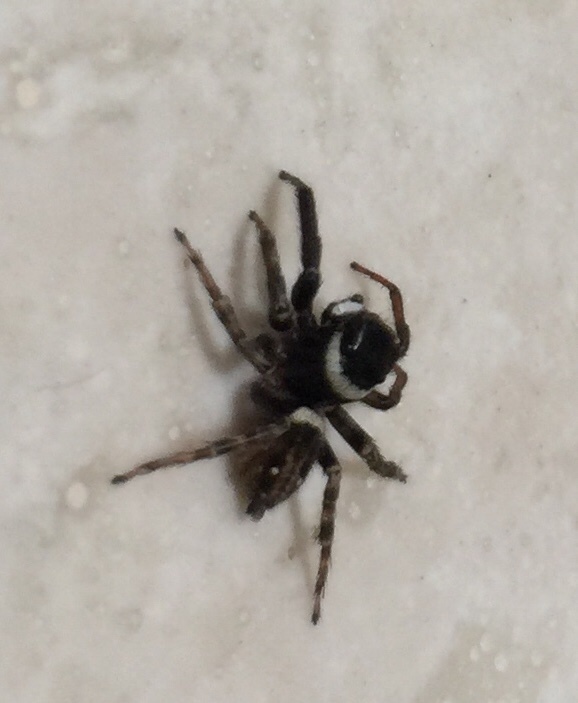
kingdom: Animalia
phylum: Arthropoda
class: Arachnida
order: Araneae
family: Salticidae
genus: Hasarius
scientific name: Hasarius adansoni
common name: Jumping spider
